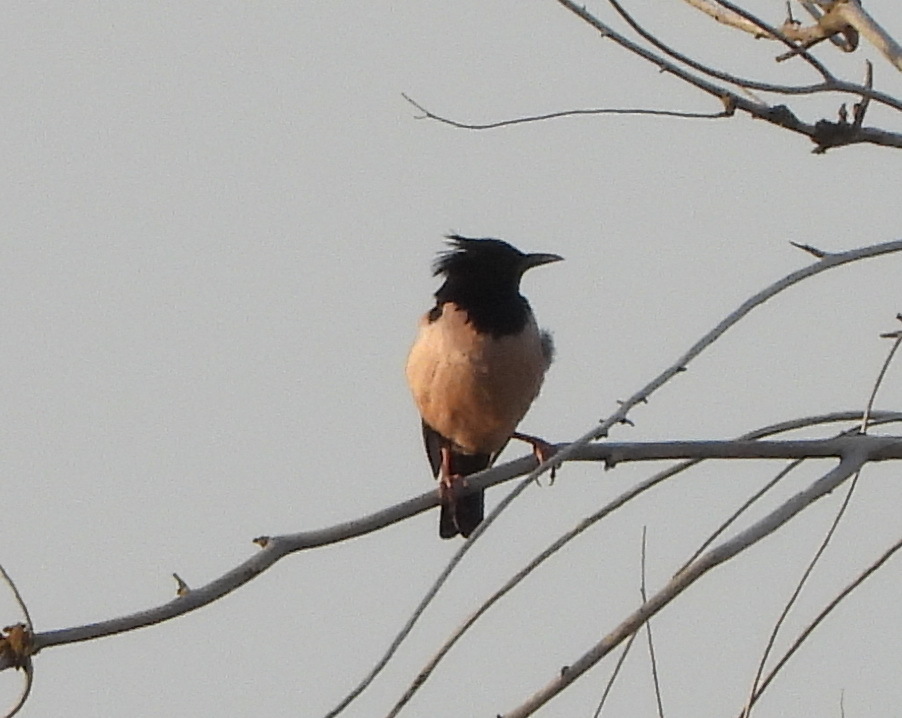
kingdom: Animalia
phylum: Chordata
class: Aves
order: Passeriformes
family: Sturnidae
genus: Pastor
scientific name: Pastor roseus
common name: Rosy starling
